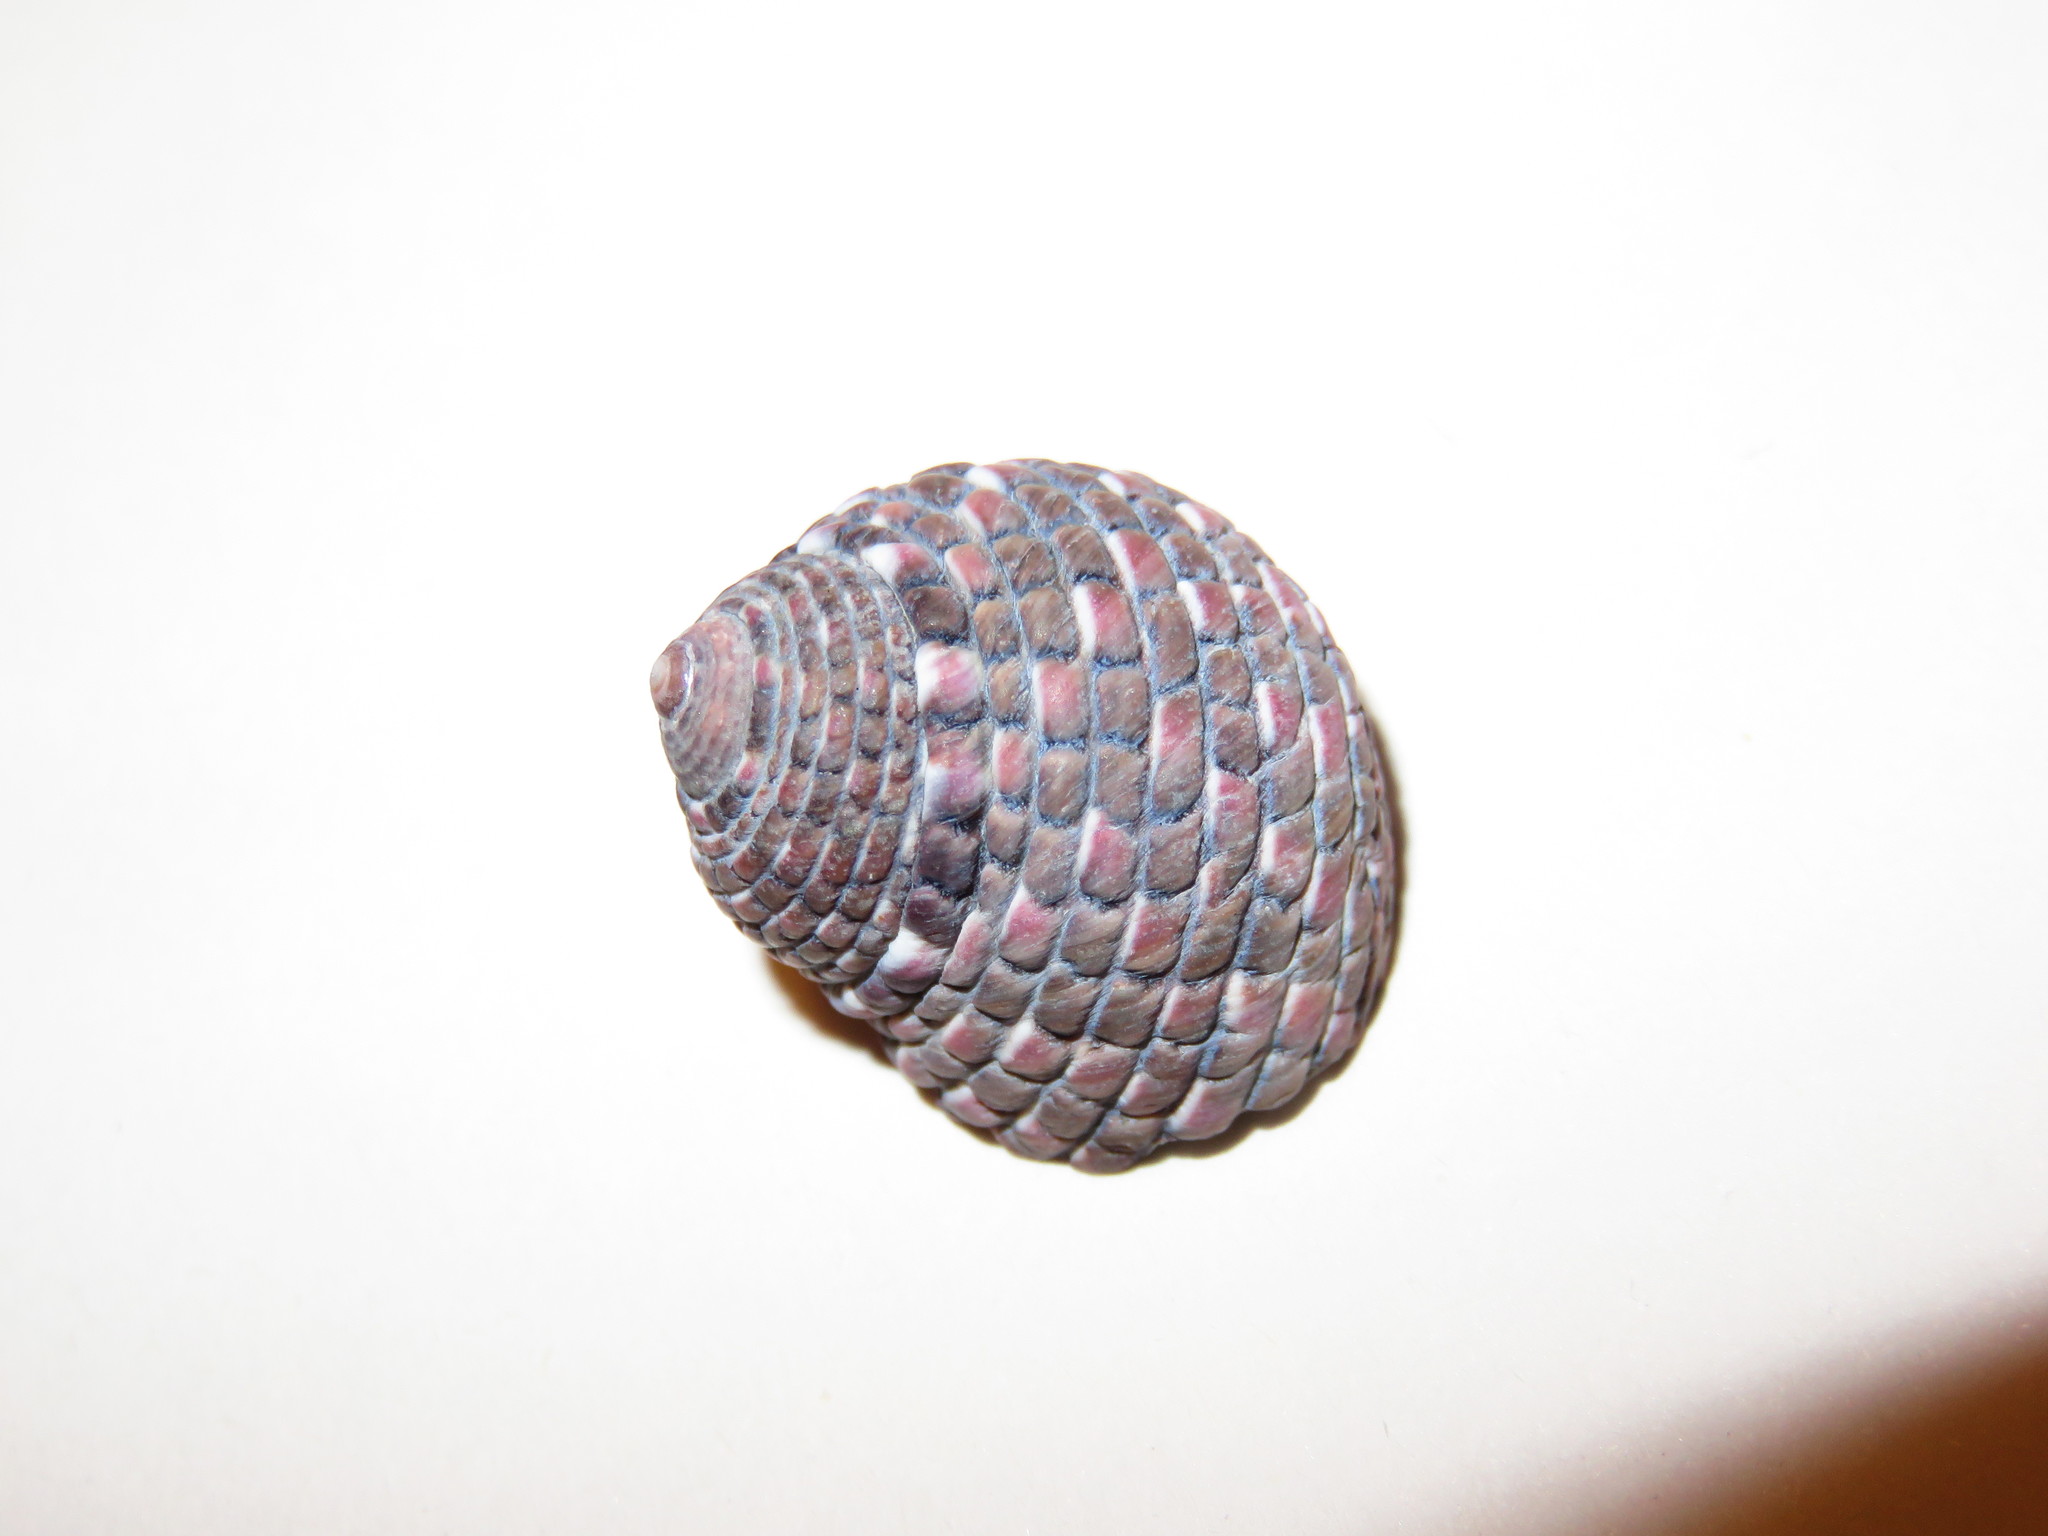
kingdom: Animalia
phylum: Mollusca
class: Gastropoda
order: Trochida
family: Trochidae
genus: Monodonta
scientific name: Monodonta confusa
